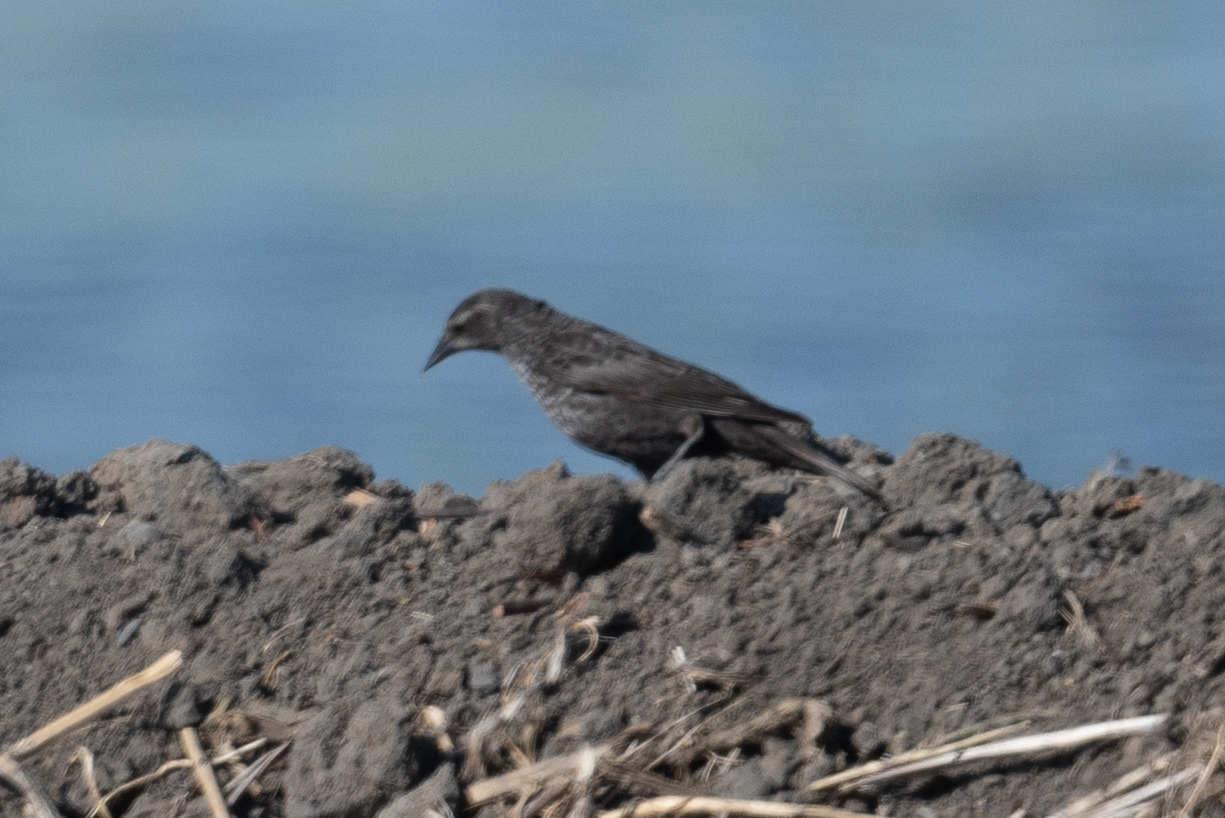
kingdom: Animalia
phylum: Chordata
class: Aves
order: Passeriformes
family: Icteridae
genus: Agelaius
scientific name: Agelaius phoeniceus
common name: Red-winged blackbird
